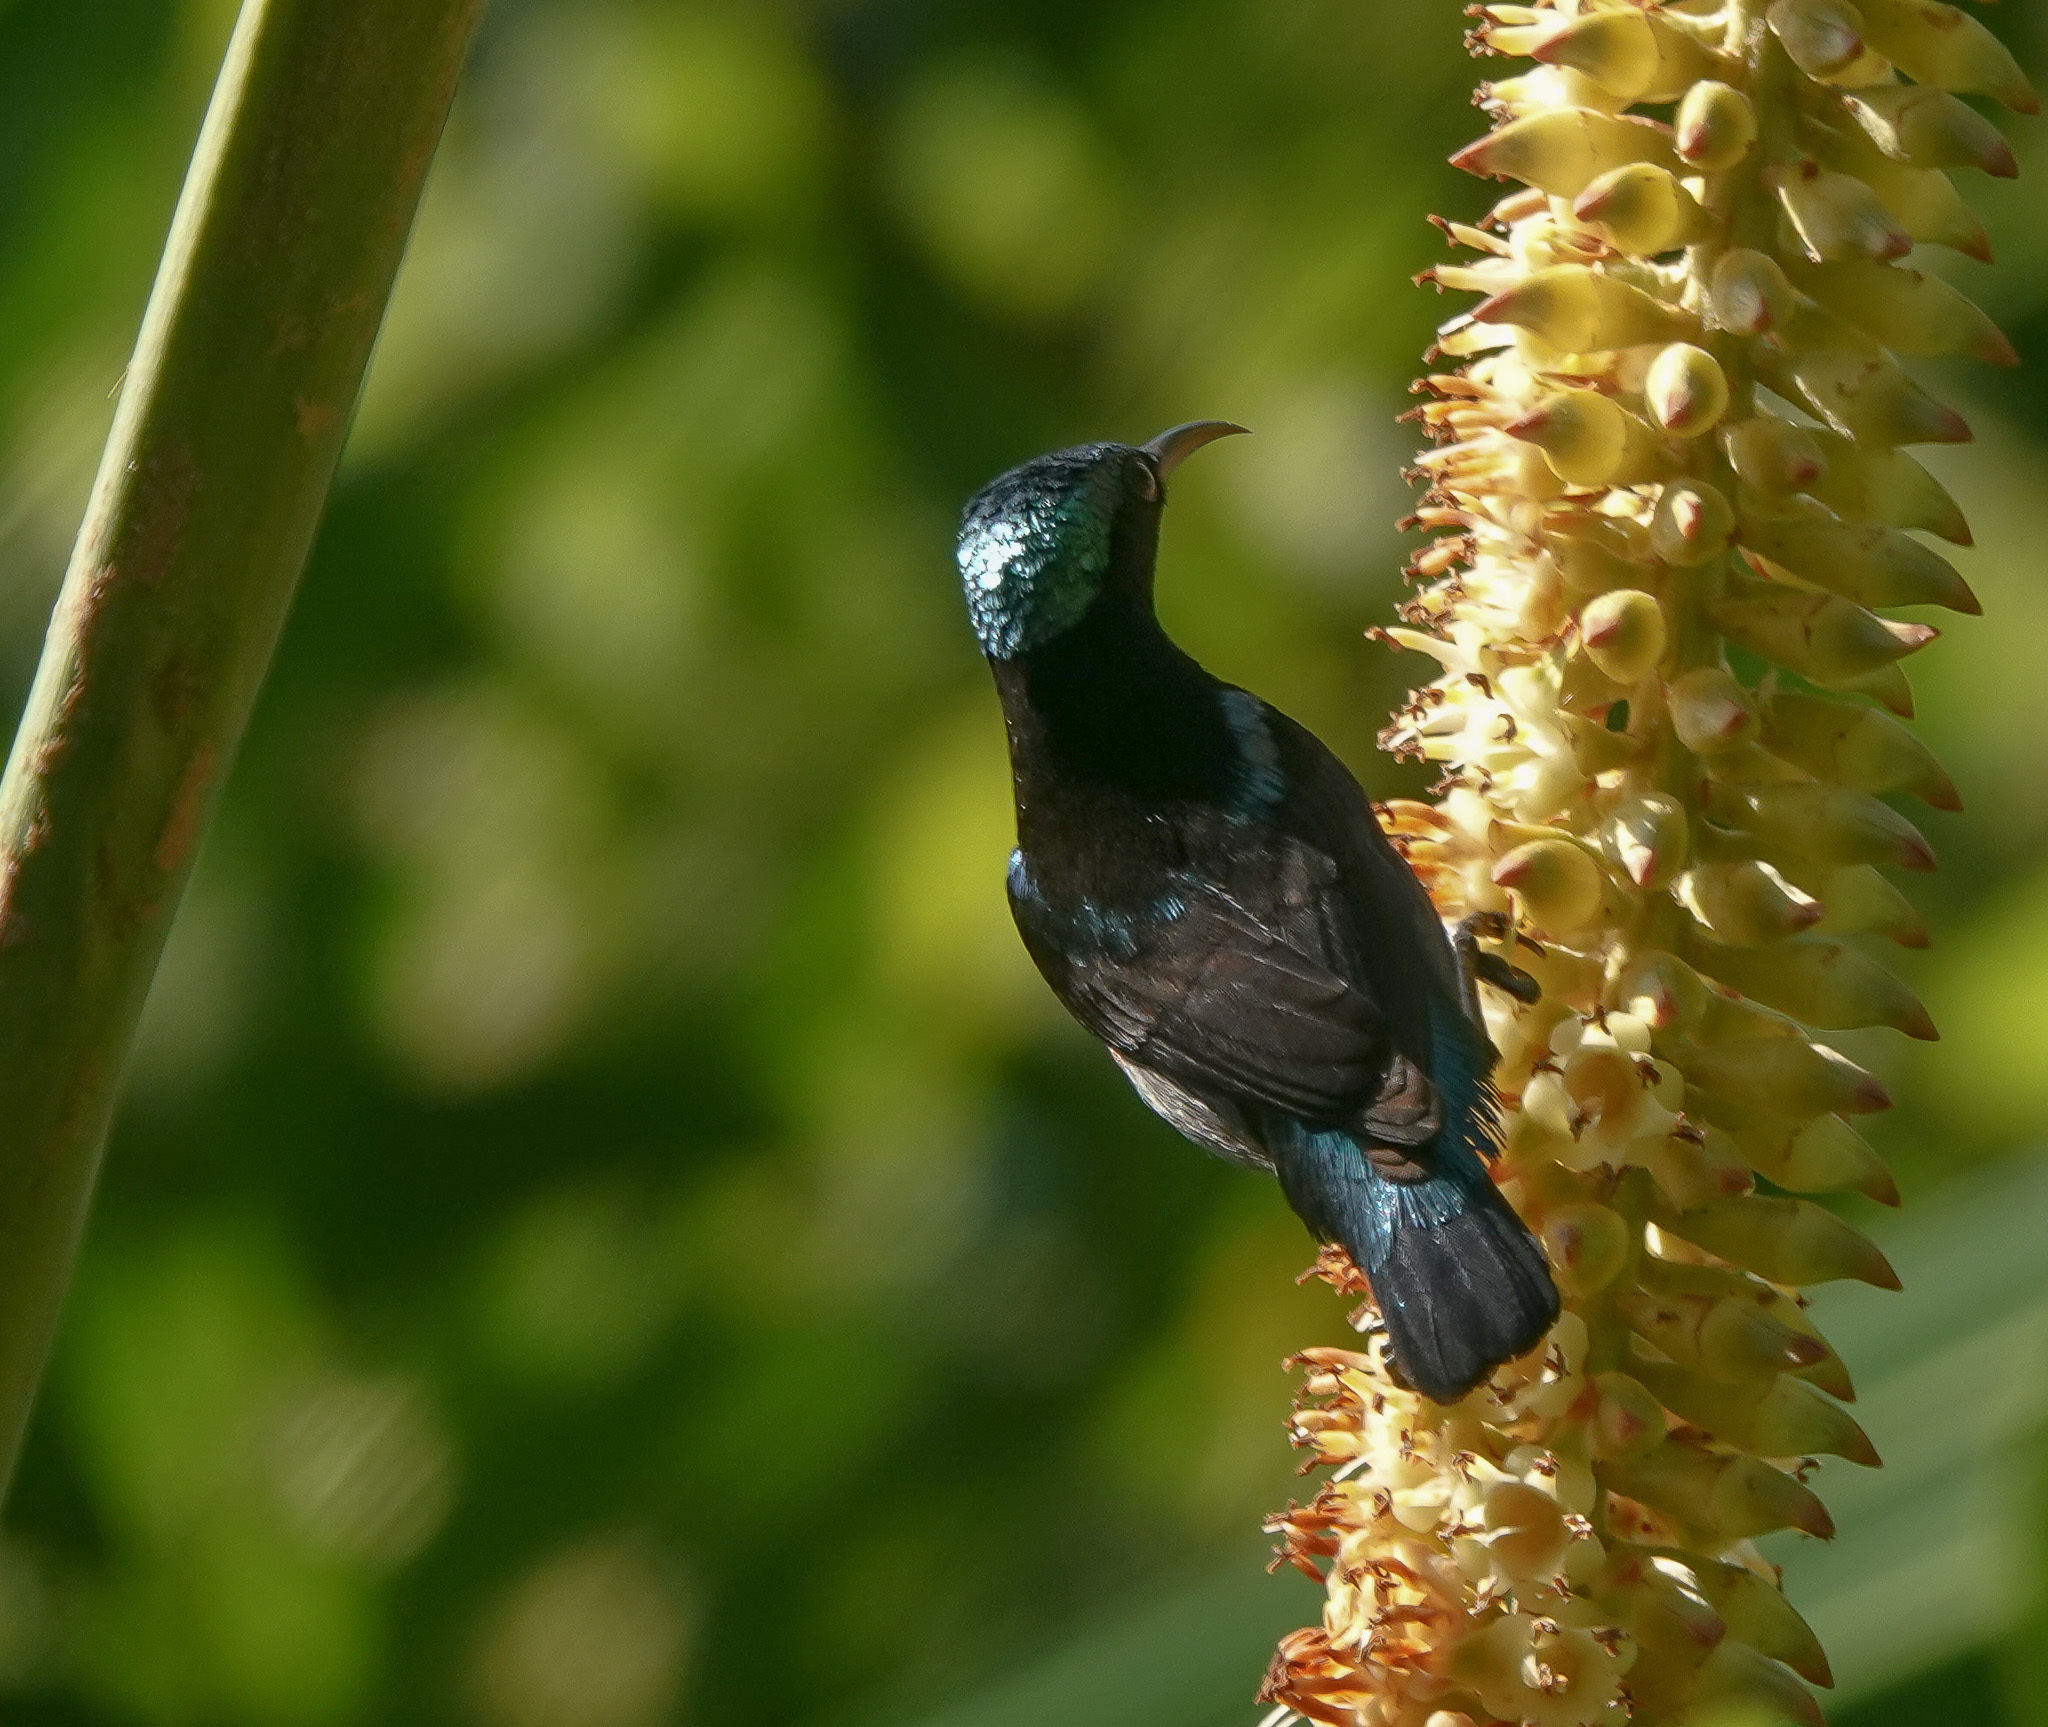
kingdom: Animalia
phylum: Chordata
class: Aves
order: Passeriformes
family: Nectariniidae
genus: Leptocoma
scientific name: Leptocoma brasiliana
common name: Van hasselt's sunbird
